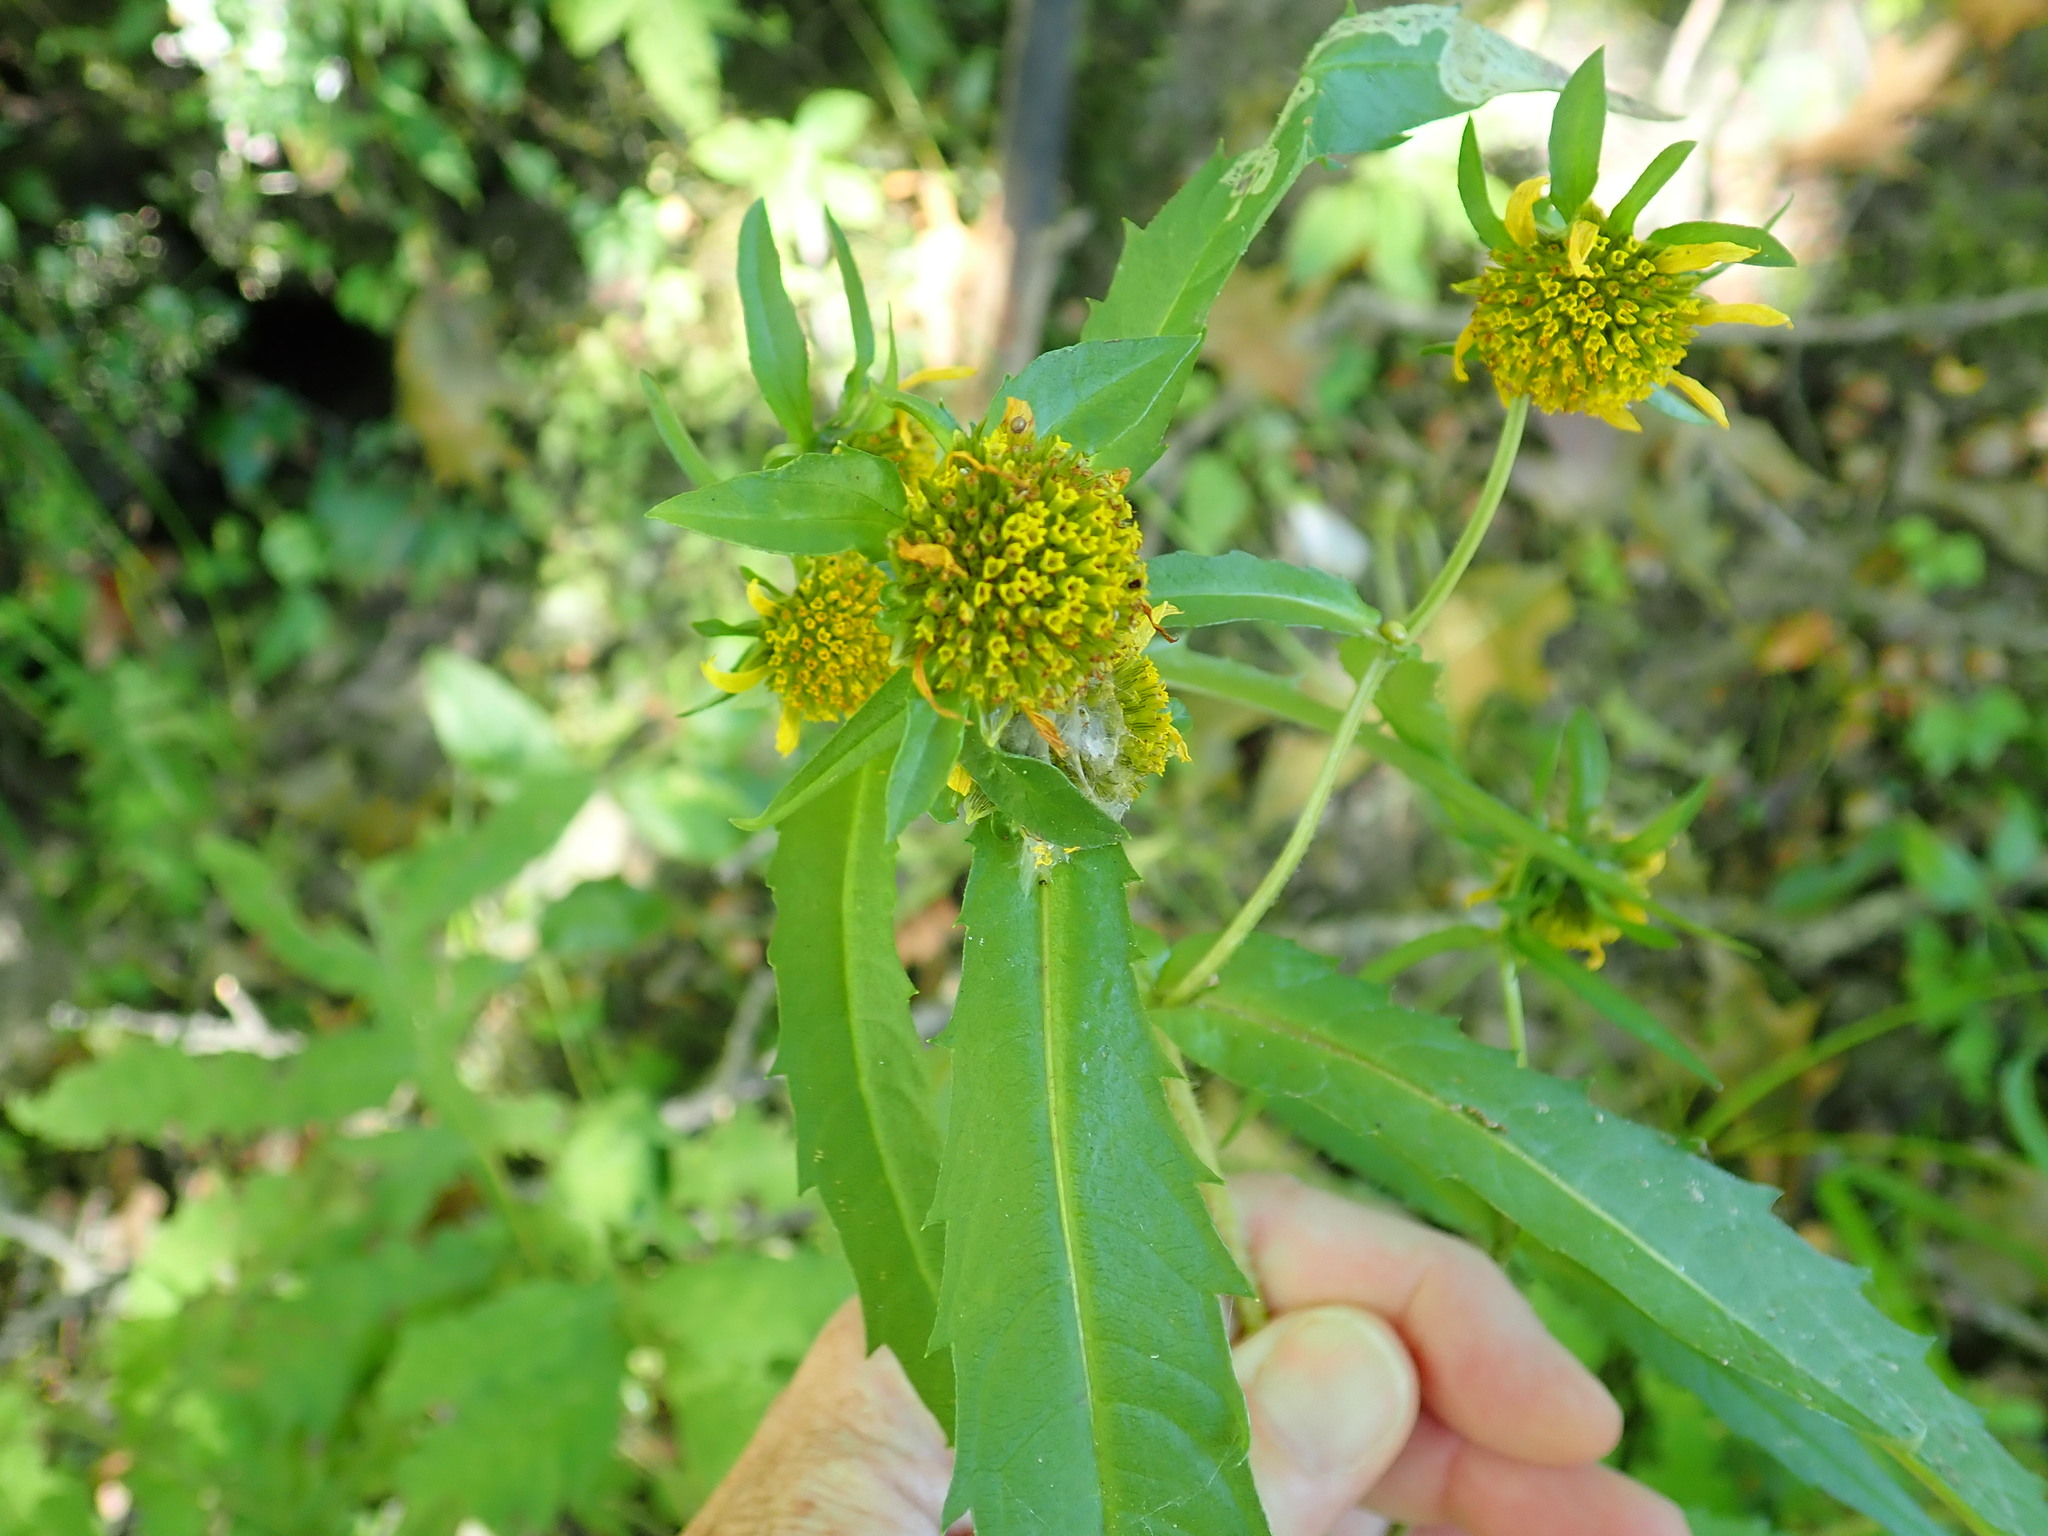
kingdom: Plantae
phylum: Tracheophyta
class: Magnoliopsida
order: Asterales
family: Asteraceae
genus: Bidens
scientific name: Bidens cernua
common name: Nodding bur-marigold
